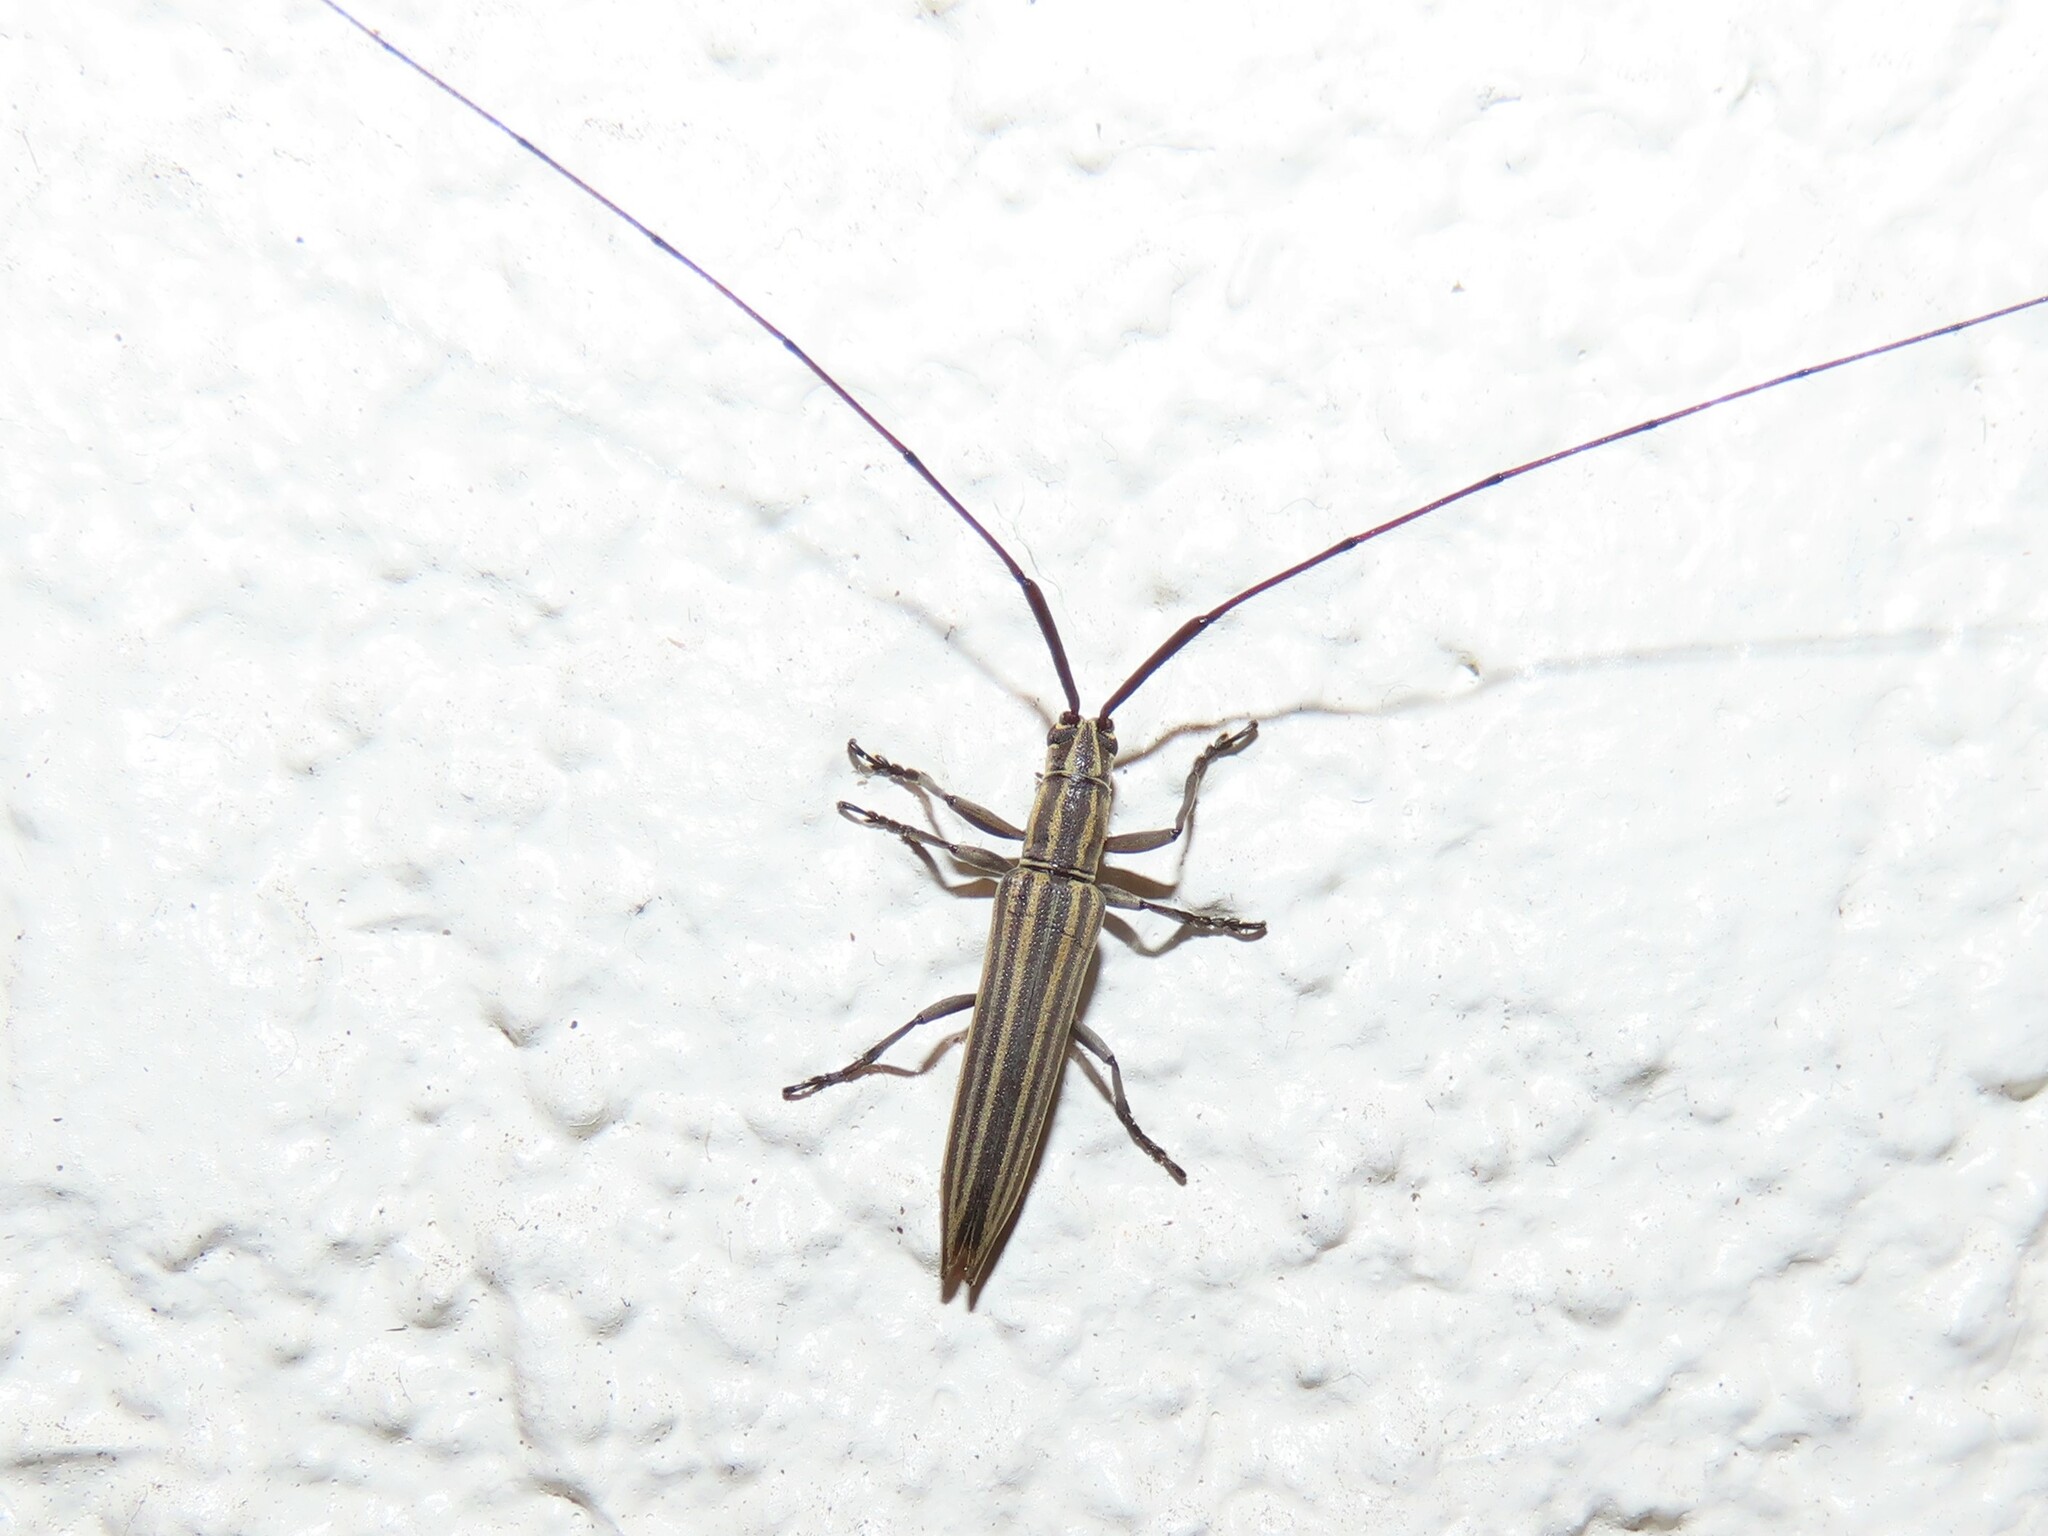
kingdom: Animalia
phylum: Arthropoda
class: Insecta
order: Coleoptera
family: Cerambycidae
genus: Hippopsis
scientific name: Hippopsis
